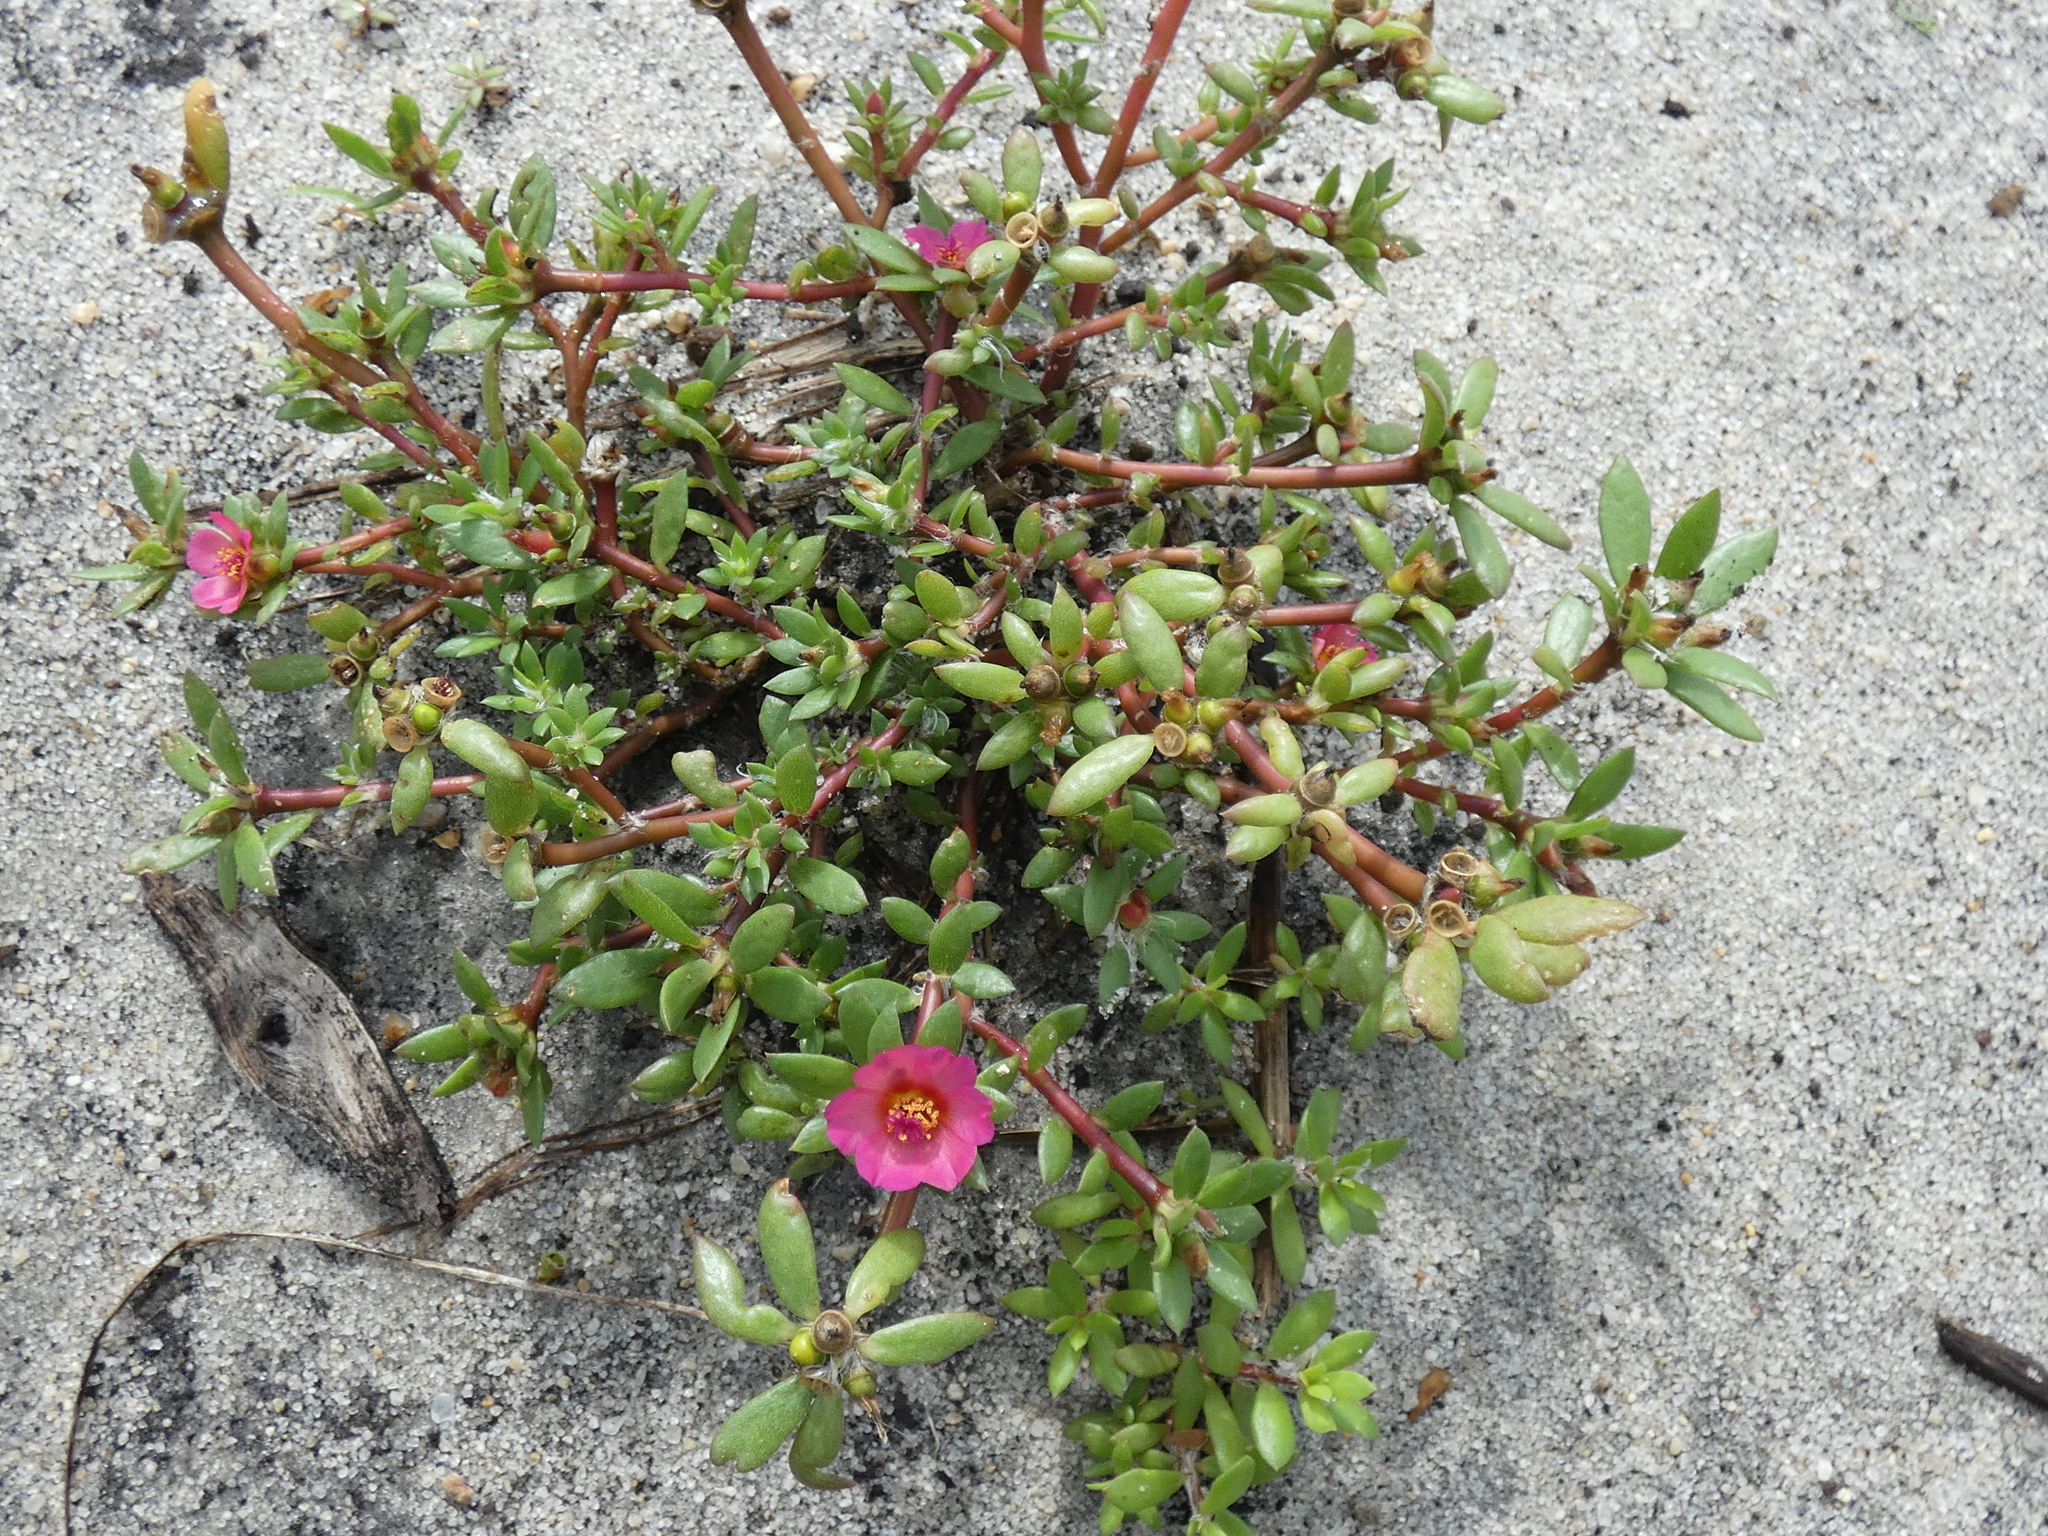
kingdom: Plantae
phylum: Tracheophyta
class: Magnoliopsida
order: Caryophyllales
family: Portulacaceae
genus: Portulaca
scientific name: Portulaca amilis
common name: Paraguayan purslane
